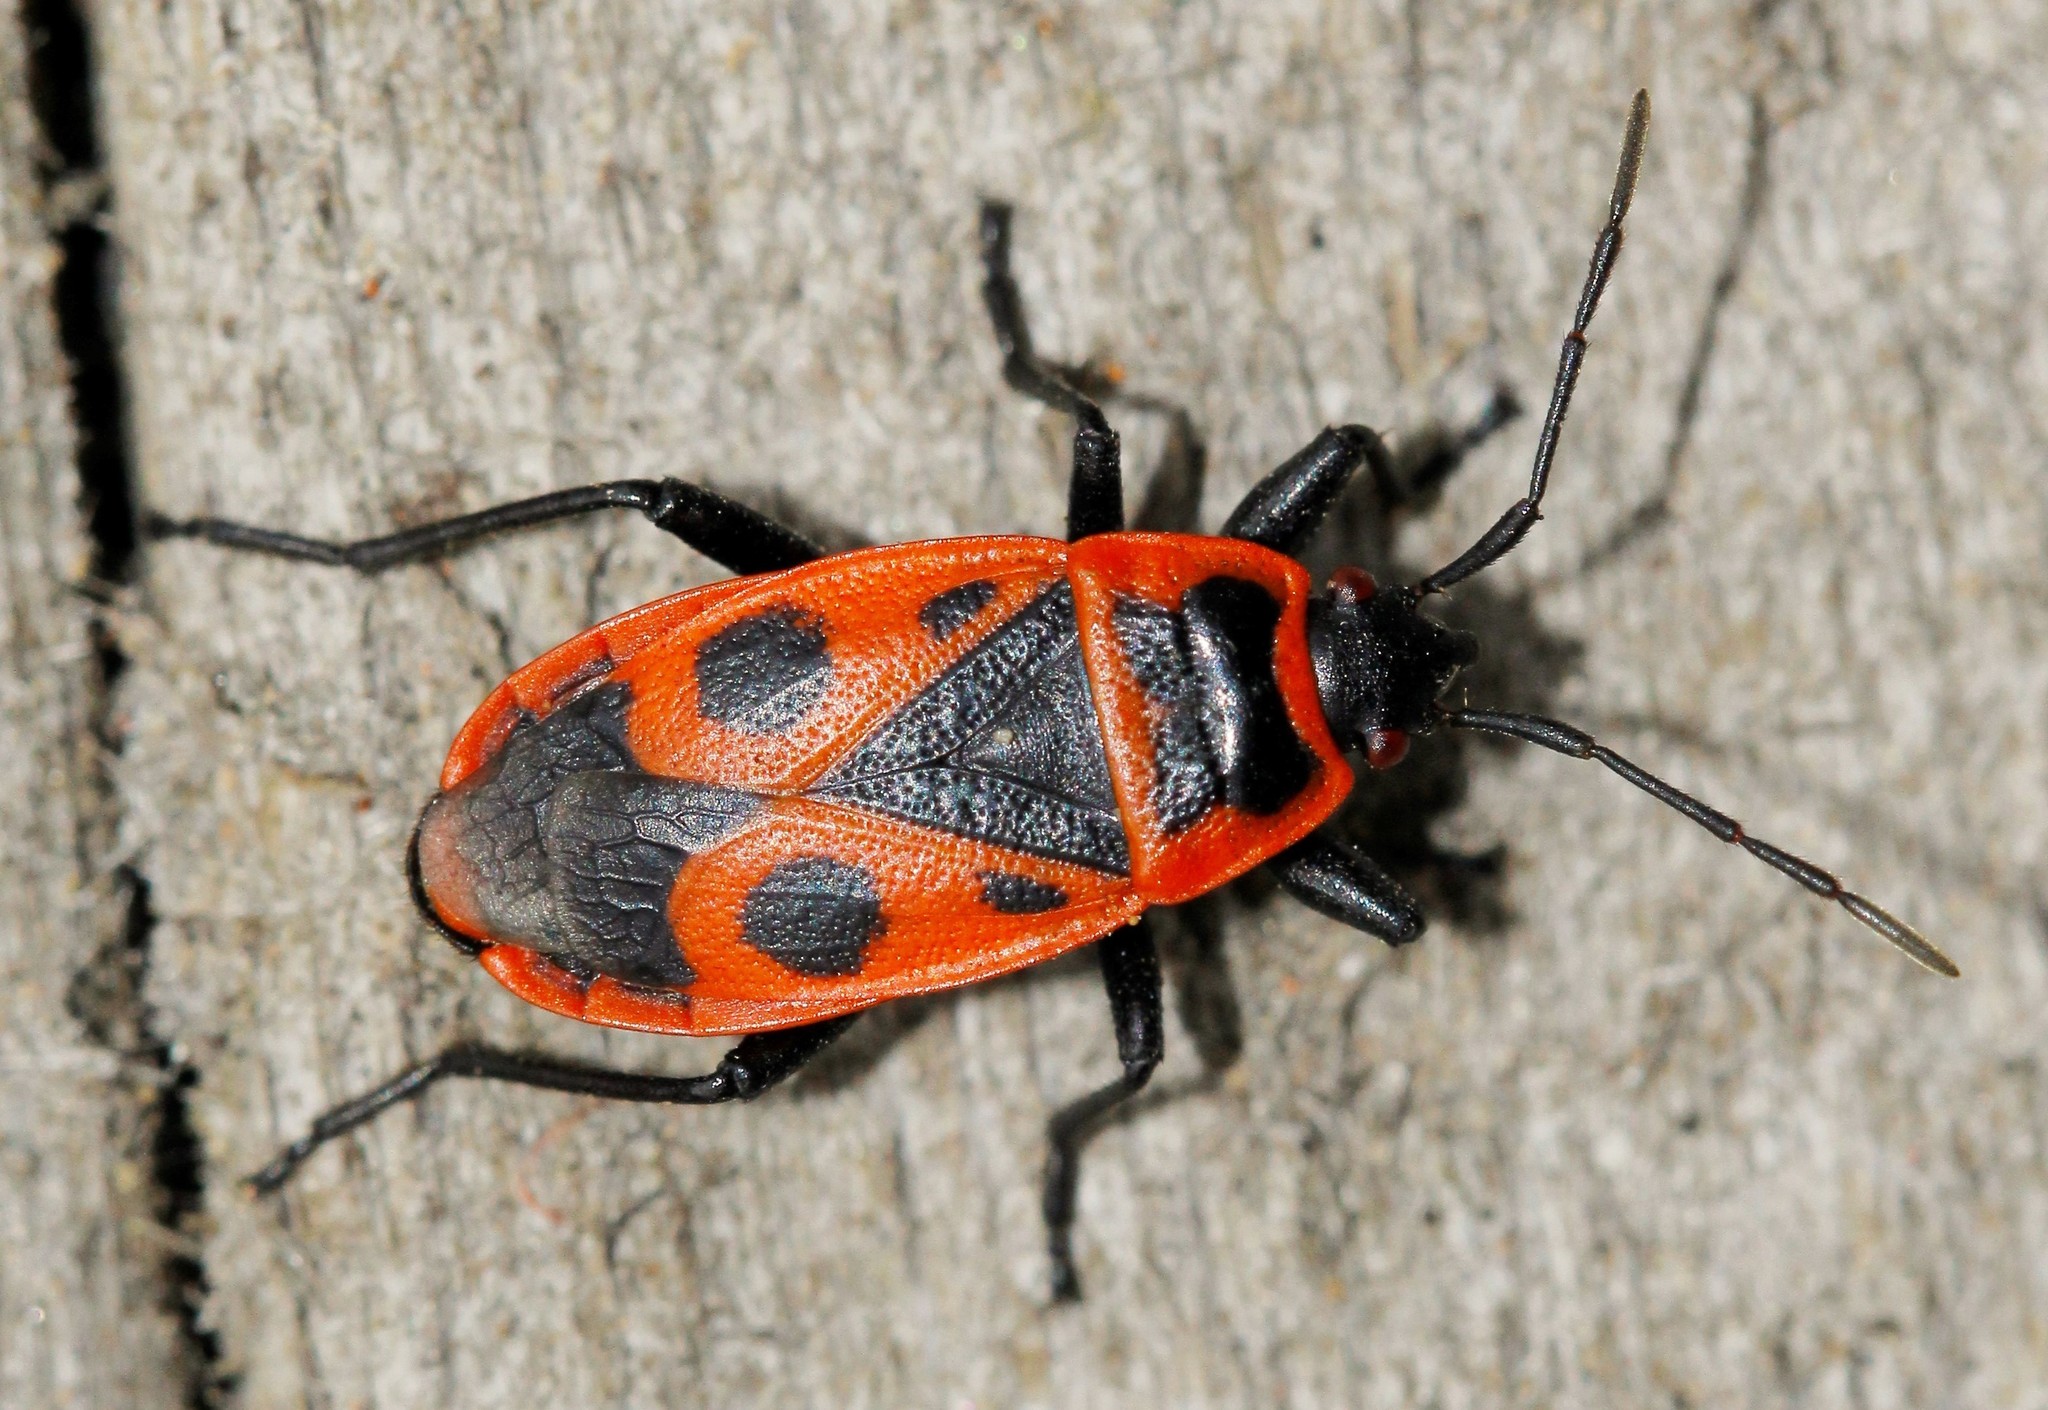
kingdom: Animalia
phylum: Arthropoda
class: Insecta
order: Hemiptera
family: Pyrrhocoridae
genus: Pyrrhocoris
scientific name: Pyrrhocoris apterus
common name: Firebug
